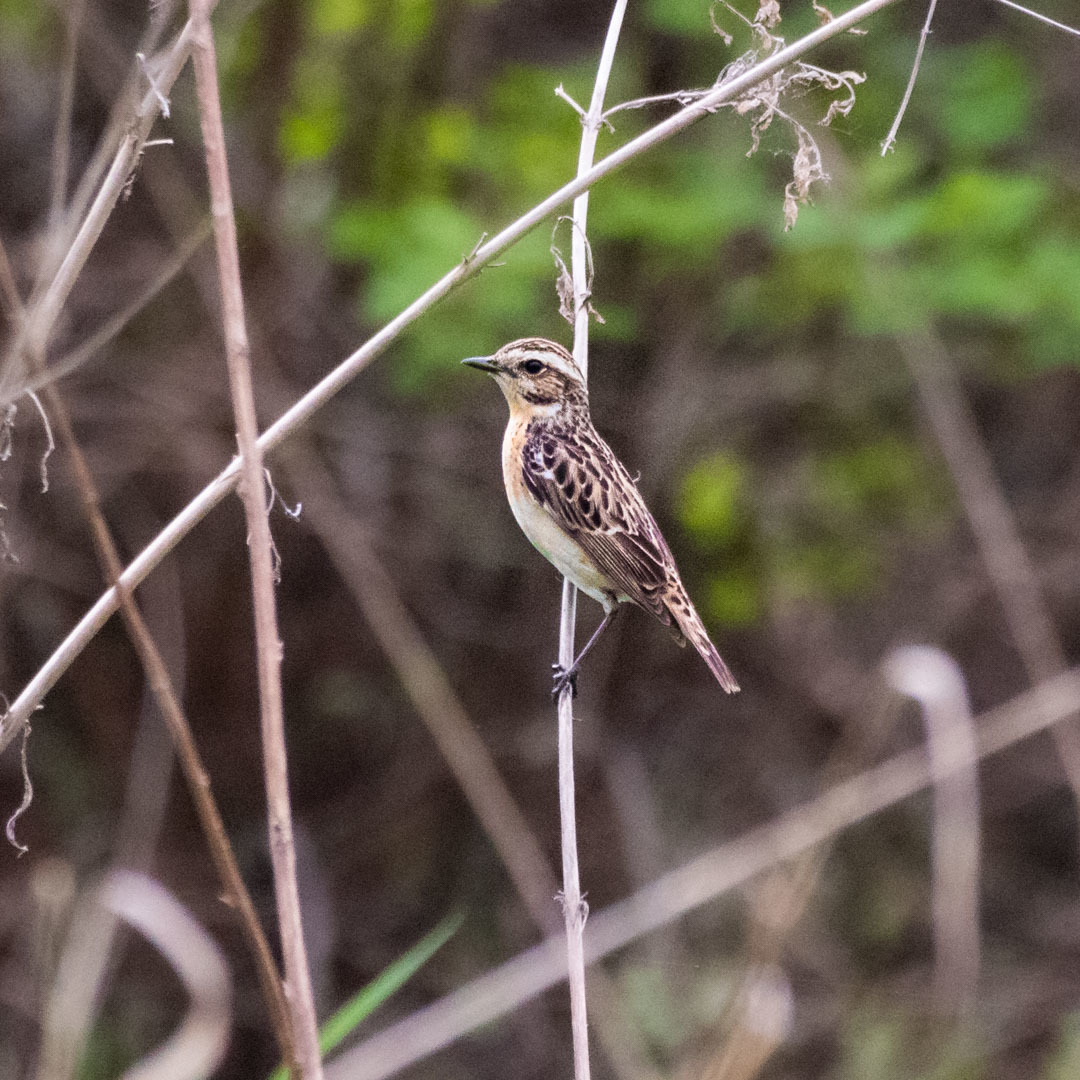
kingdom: Animalia
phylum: Chordata
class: Aves
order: Passeriformes
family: Muscicapidae
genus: Saxicola
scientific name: Saxicola rubetra
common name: Whinchat
